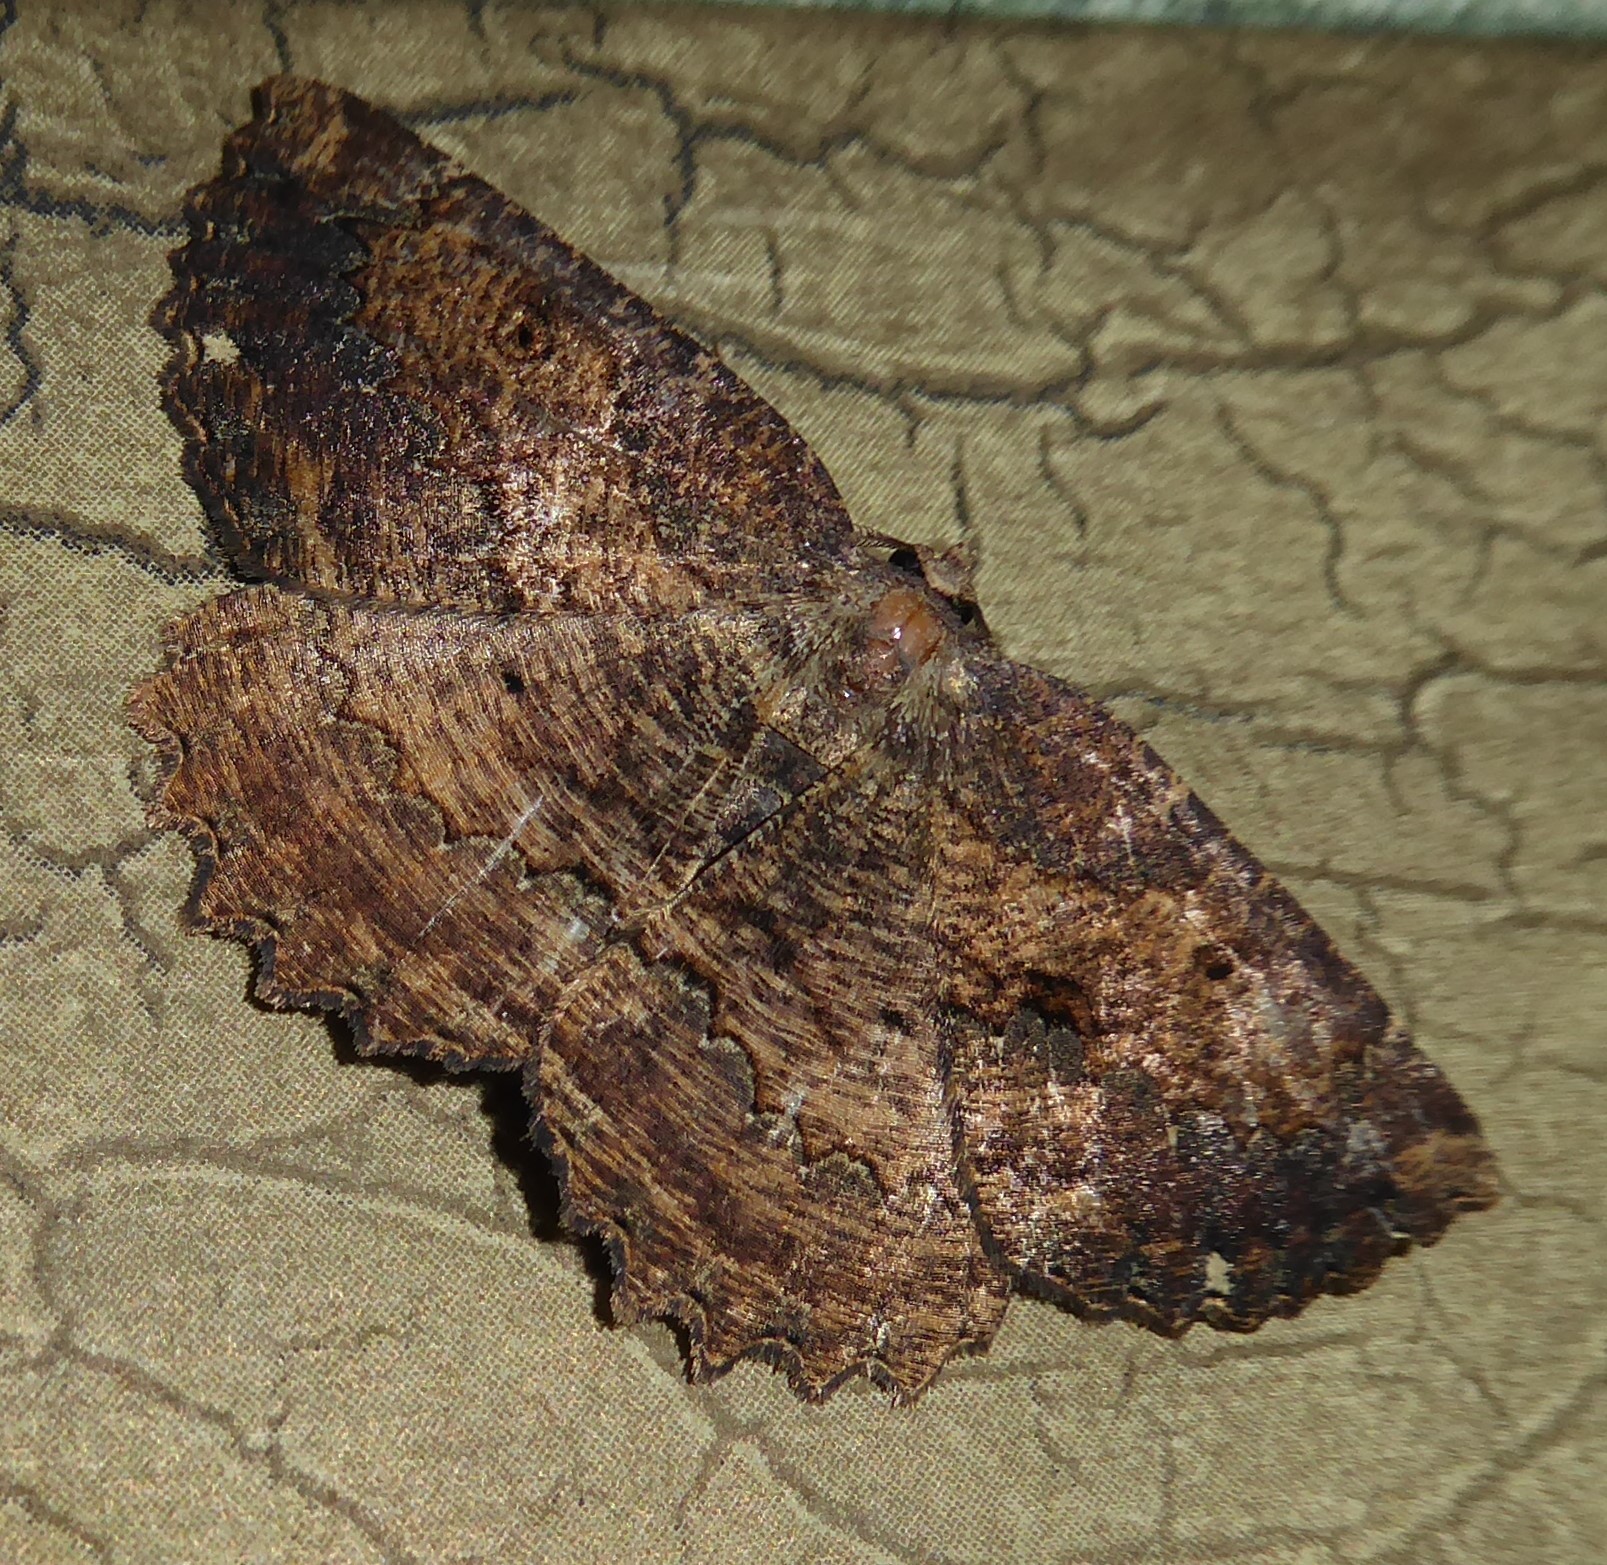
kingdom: Animalia
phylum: Arthropoda
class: Insecta
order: Lepidoptera
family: Geometridae
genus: Gellonia
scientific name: Gellonia dejectaria
